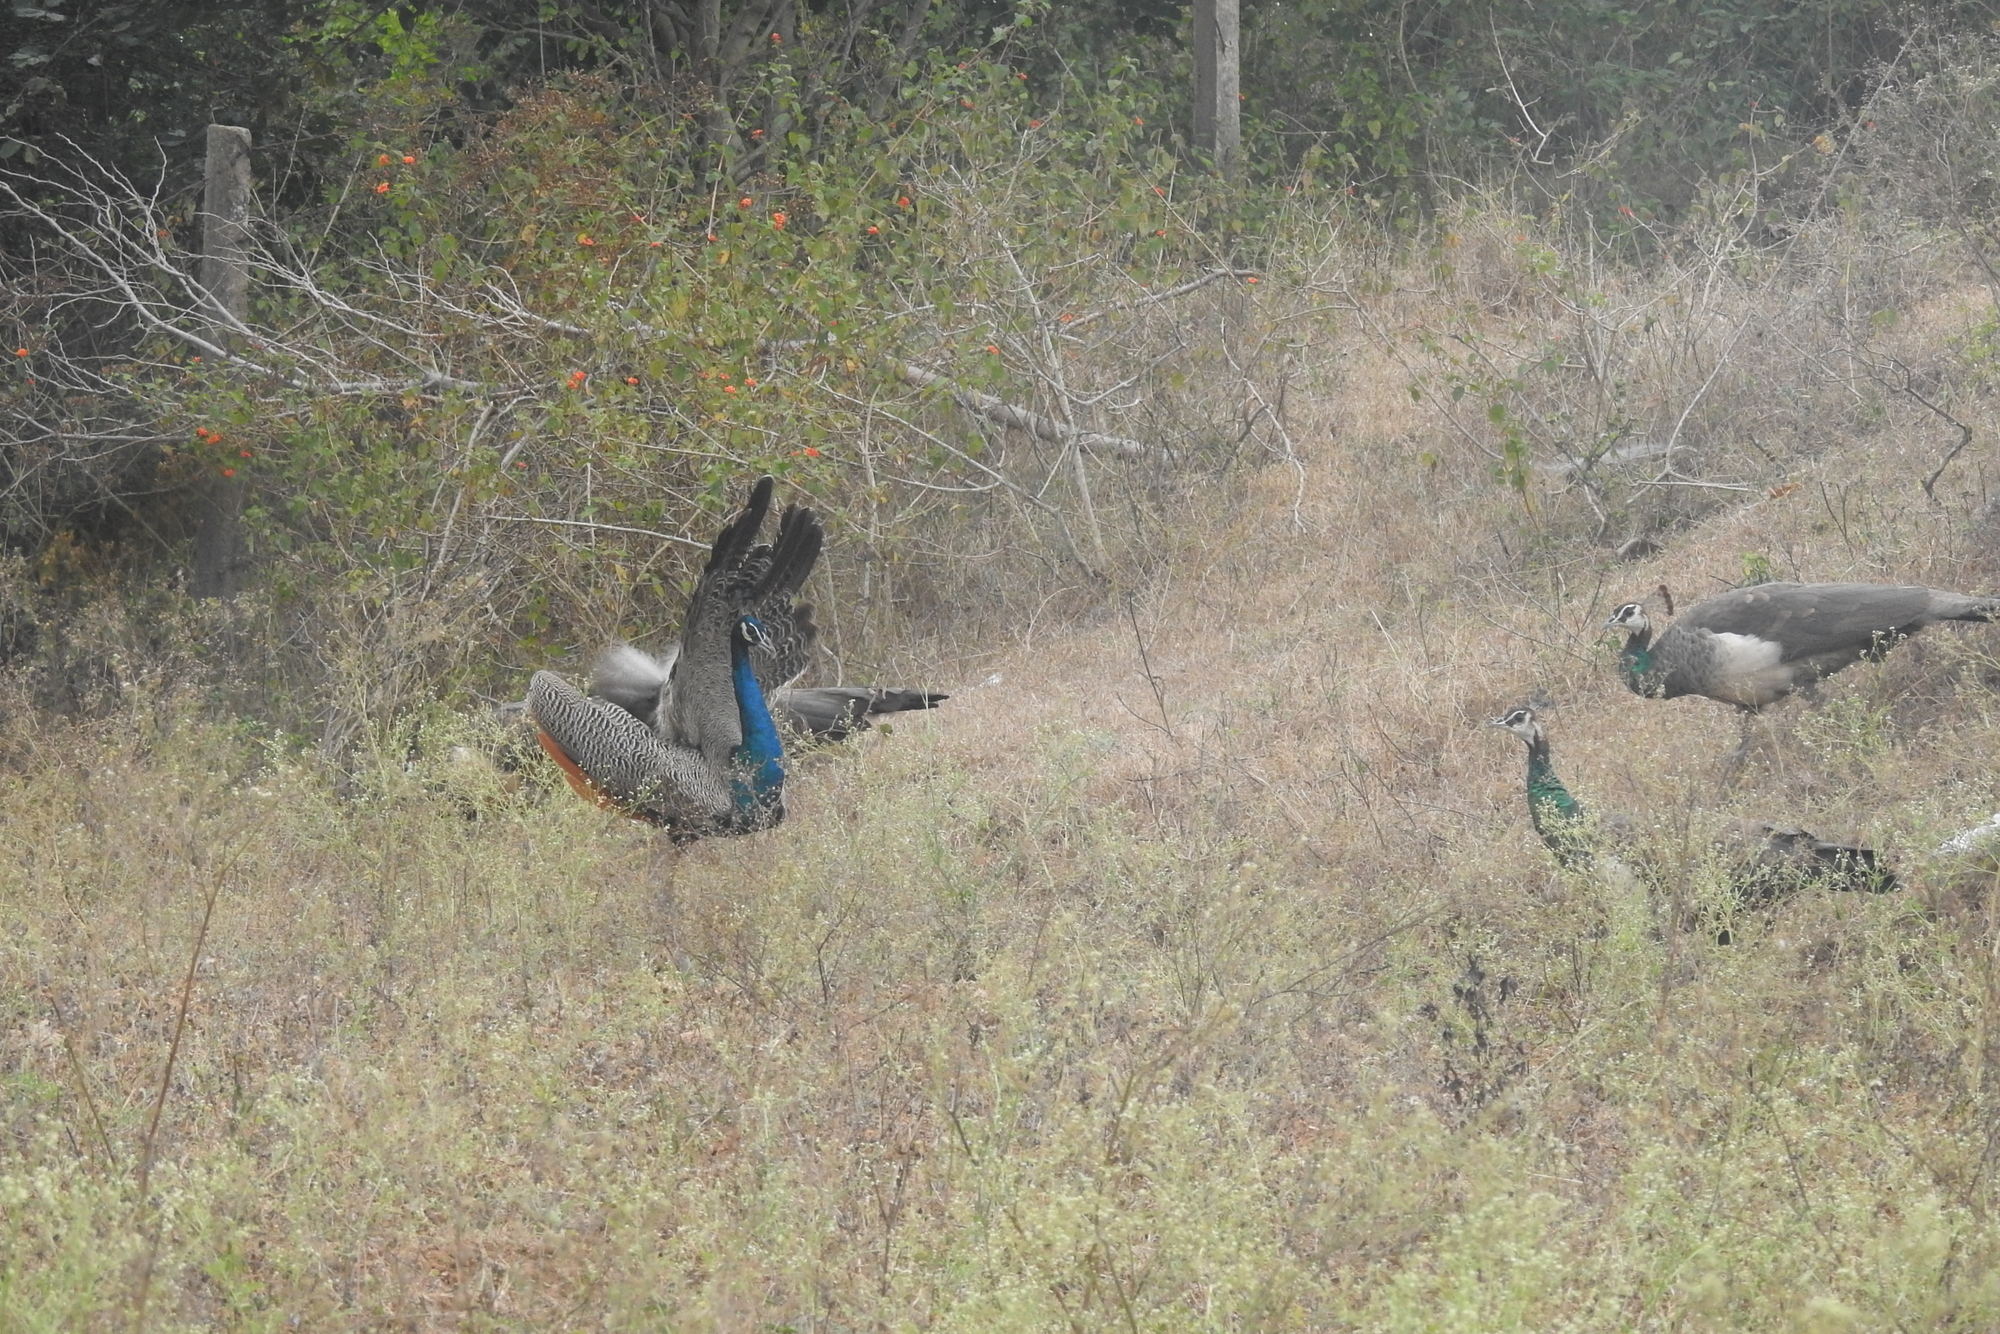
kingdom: Animalia
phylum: Chordata
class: Aves
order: Galliformes
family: Phasianidae
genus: Pavo
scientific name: Pavo cristatus
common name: Indian peafowl
